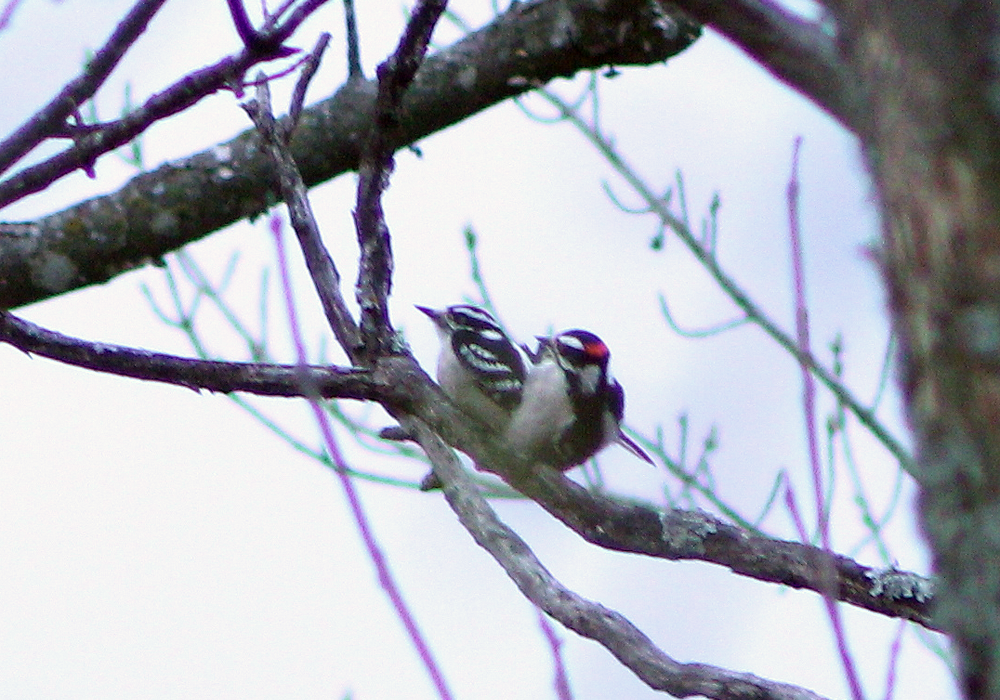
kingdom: Animalia
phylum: Chordata
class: Aves
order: Piciformes
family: Picidae
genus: Dryobates
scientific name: Dryobates pubescens
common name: Downy woodpecker
